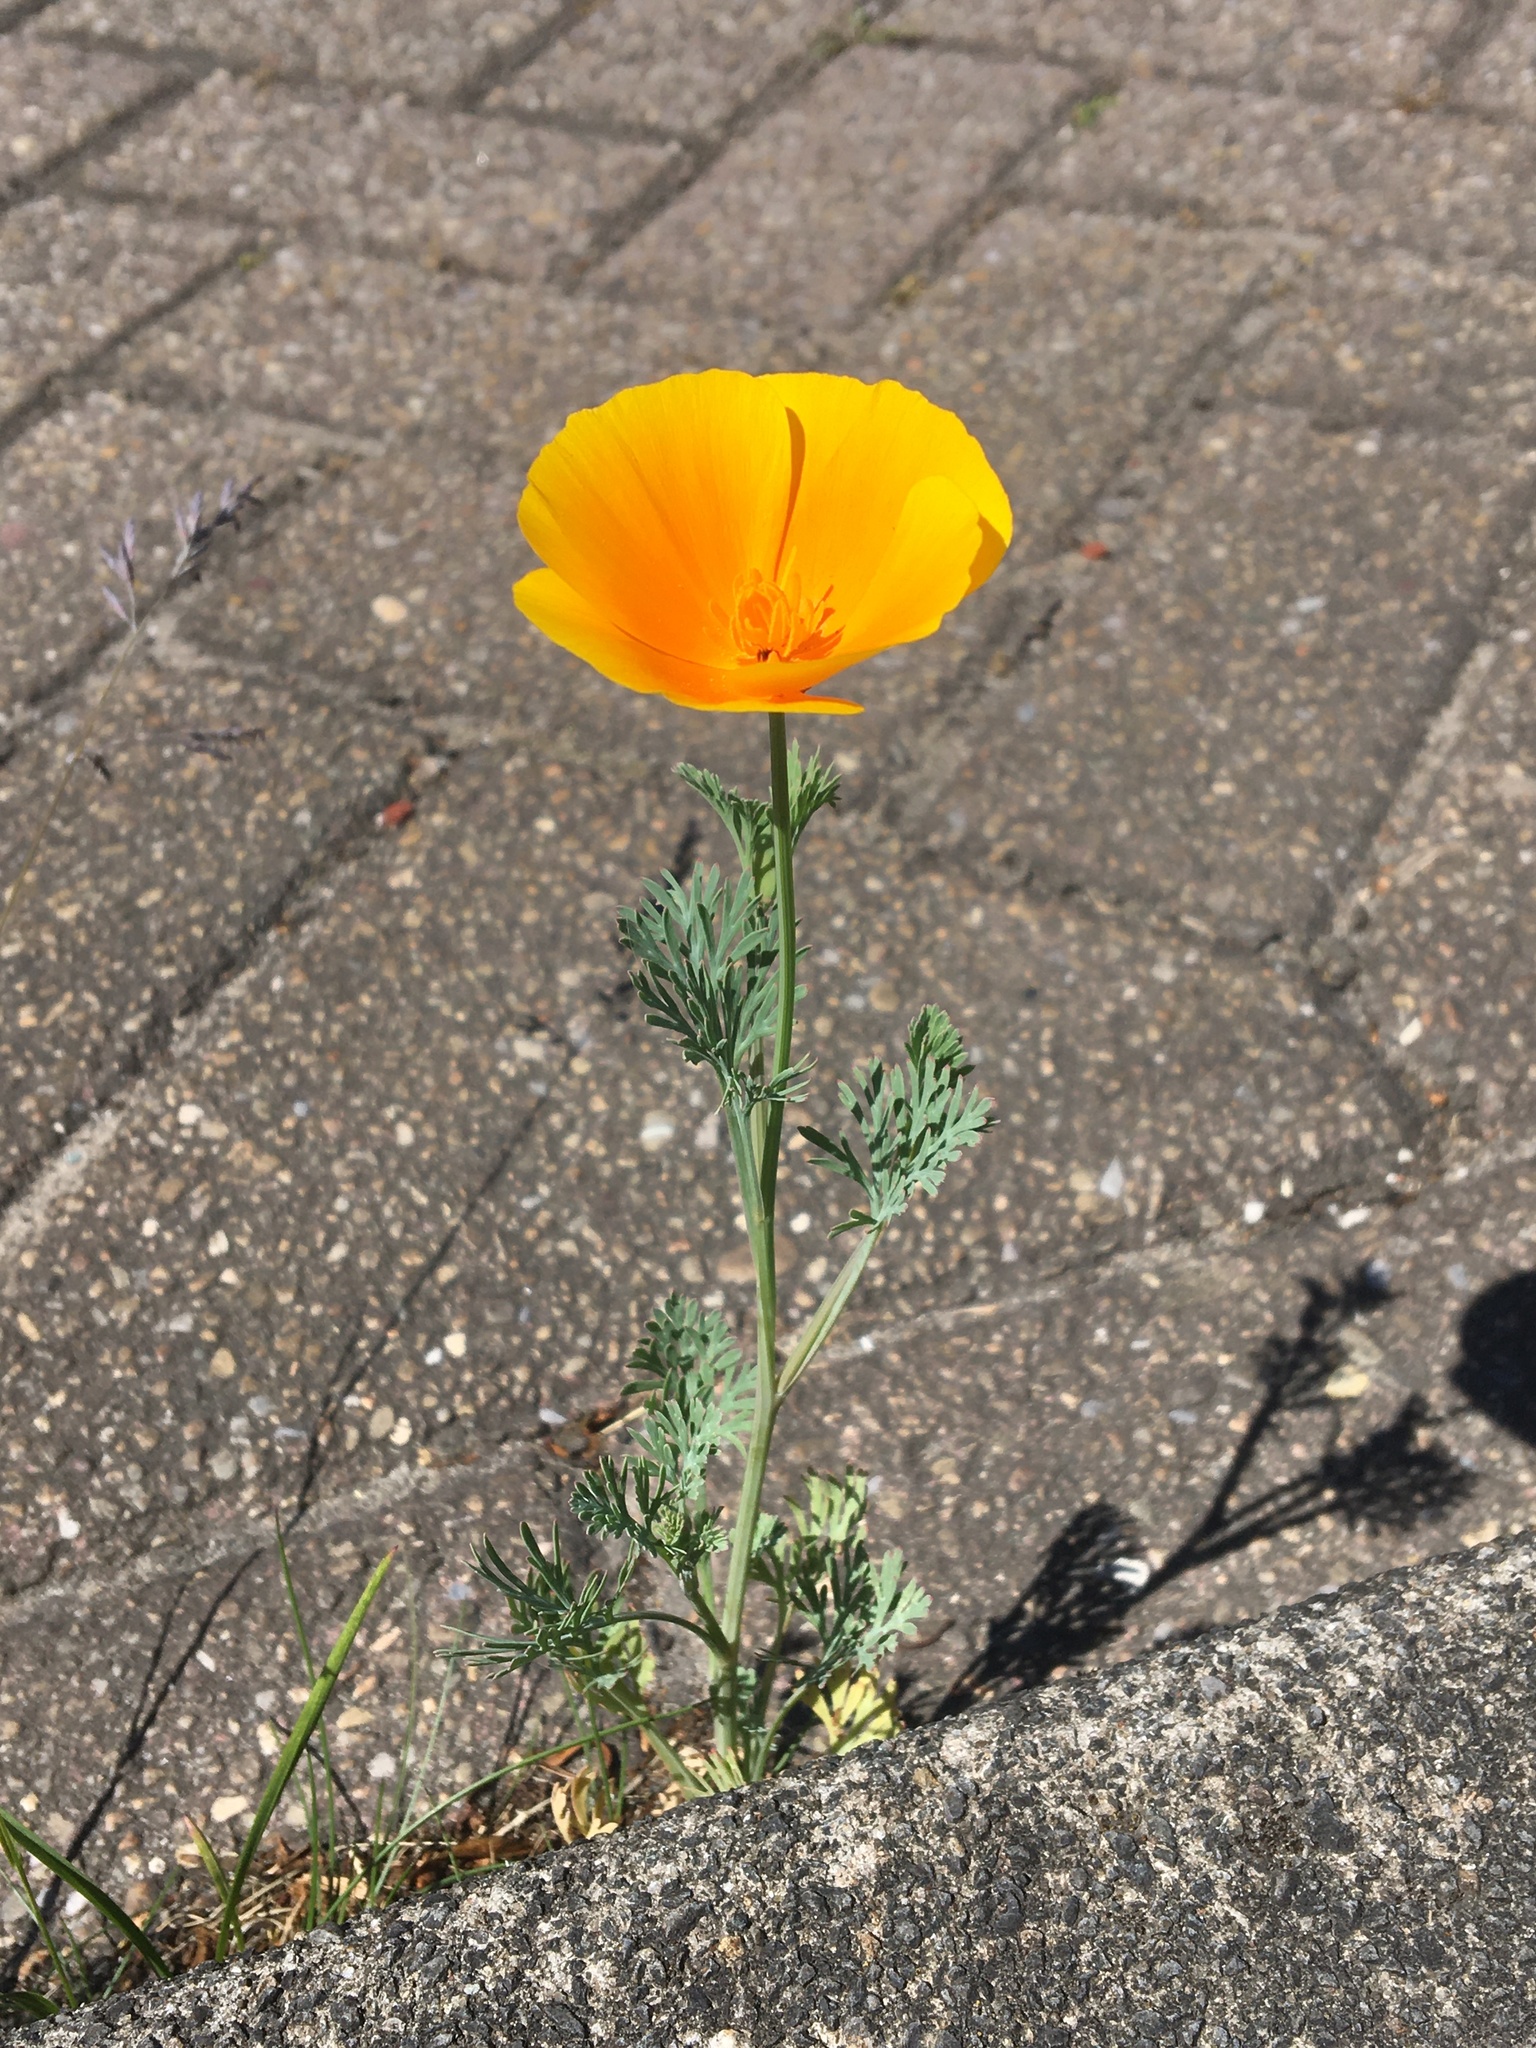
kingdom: Plantae
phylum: Tracheophyta
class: Magnoliopsida
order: Ranunculales
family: Papaveraceae
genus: Eschscholzia
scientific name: Eschscholzia californica
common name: California poppy
